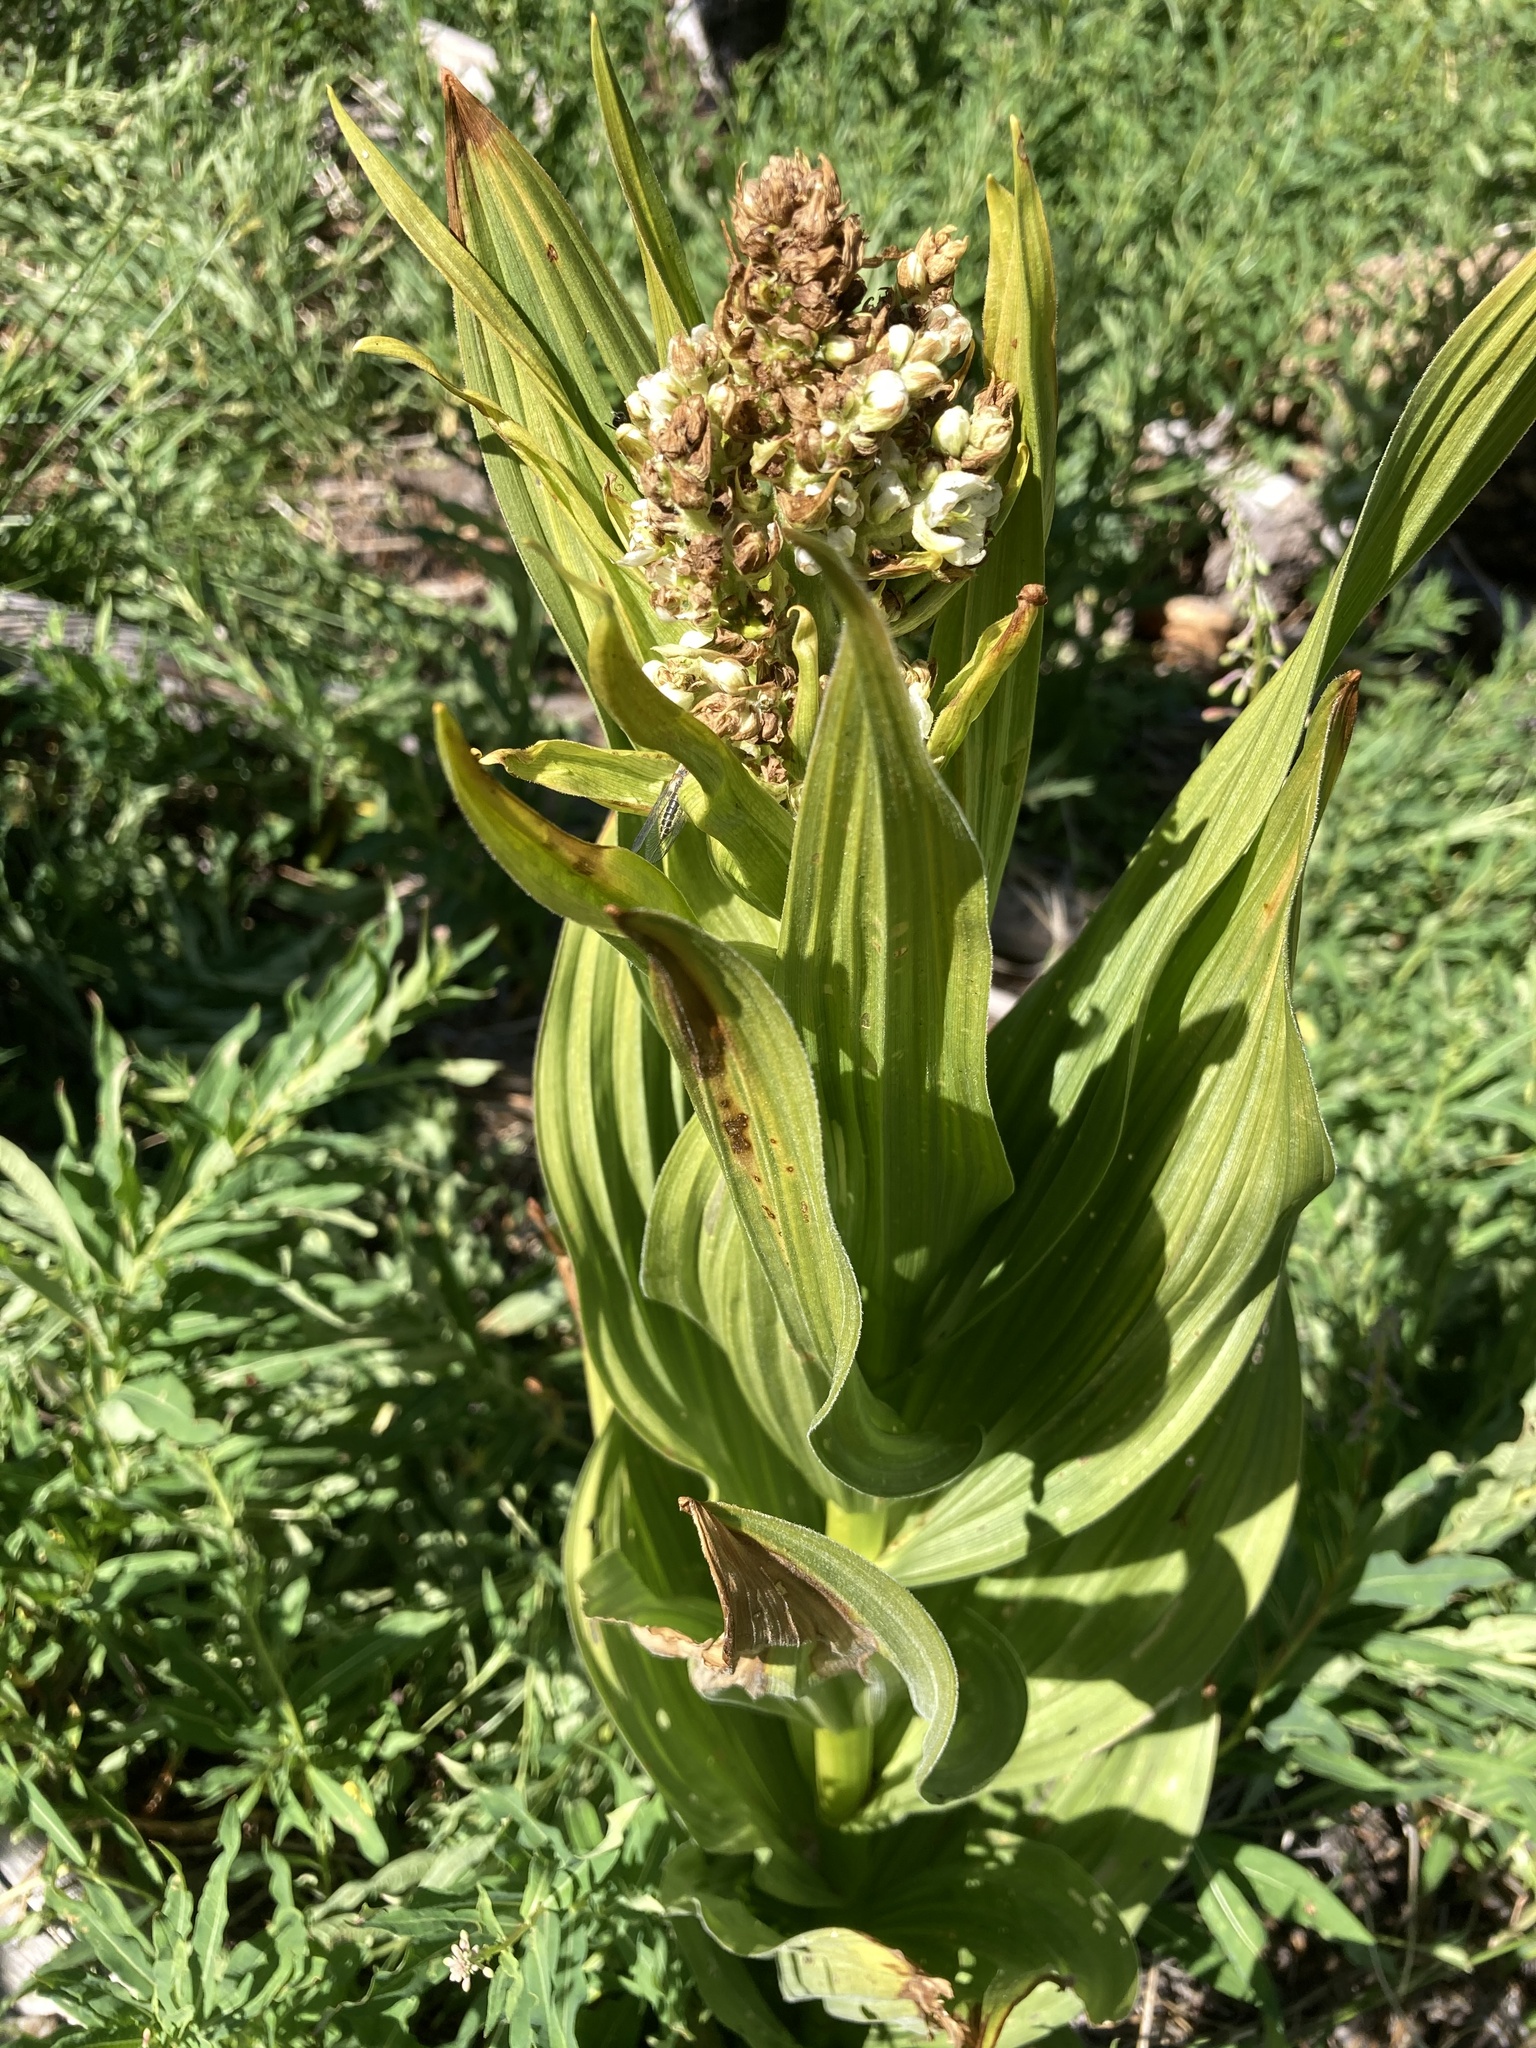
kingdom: Plantae
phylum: Tracheophyta
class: Liliopsida
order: Liliales
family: Melanthiaceae
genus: Veratrum
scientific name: Veratrum californicum
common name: California veratrum
